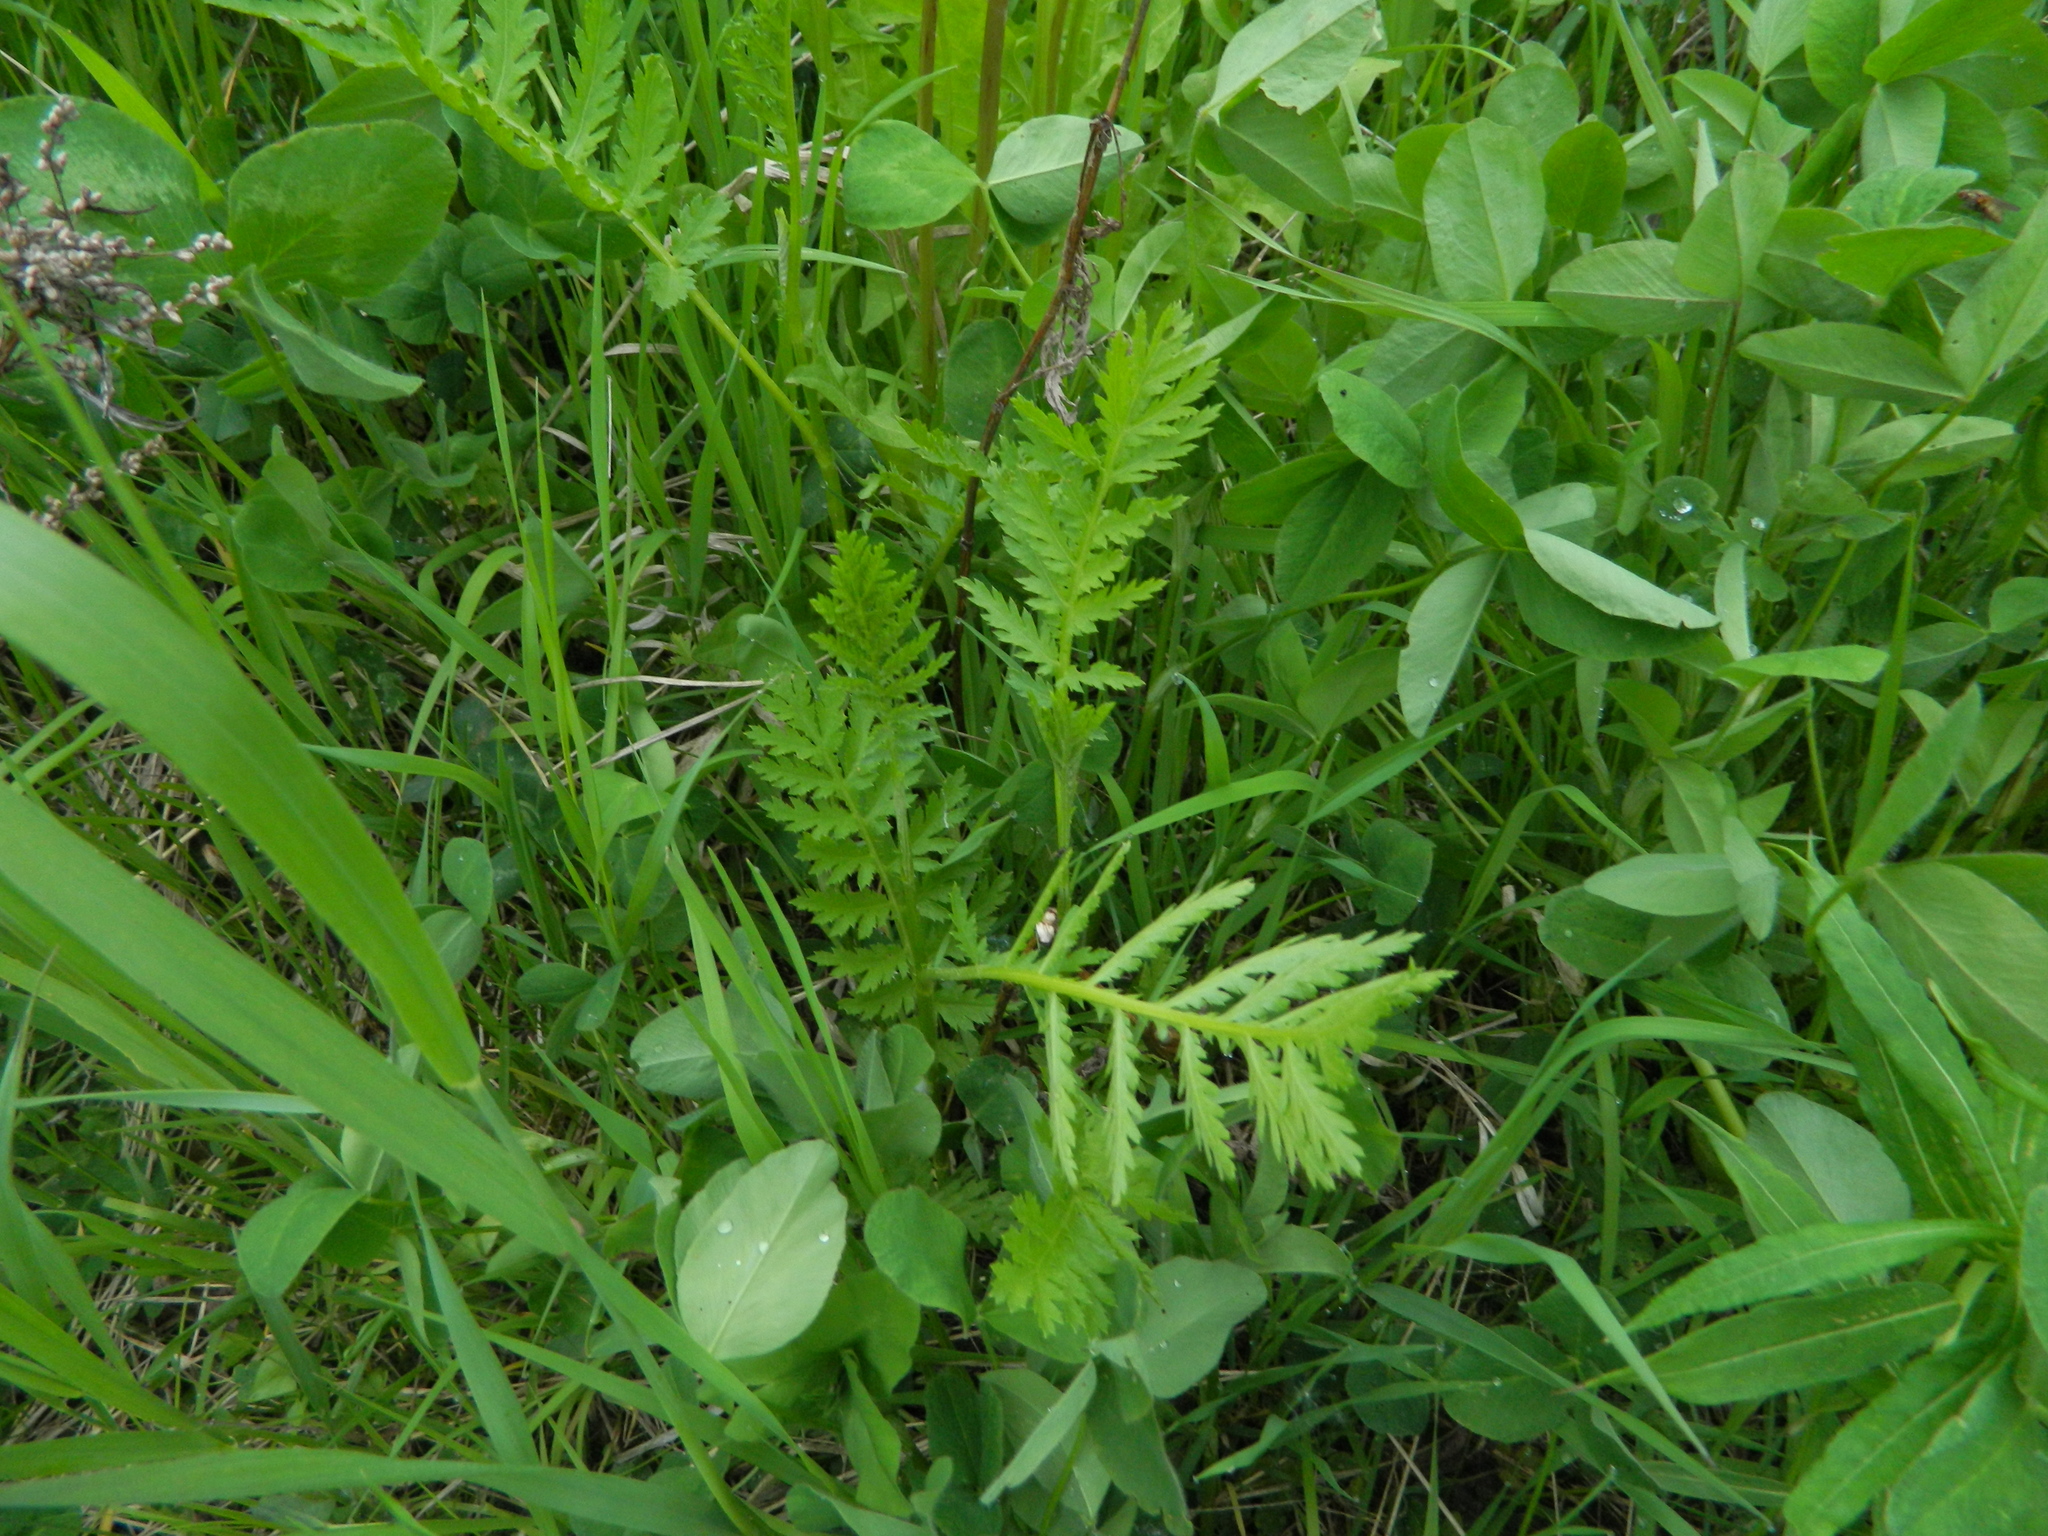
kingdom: Plantae
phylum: Tracheophyta
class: Magnoliopsida
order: Asterales
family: Asteraceae
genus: Tanacetum
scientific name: Tanacetum vulgare
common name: Common tansy
